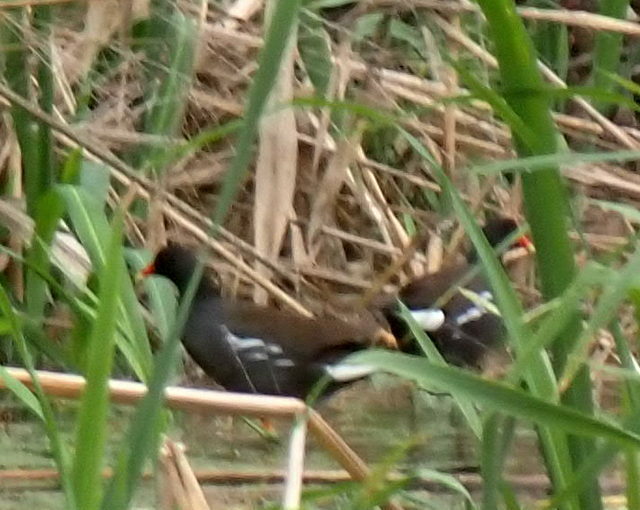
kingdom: Animalia
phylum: Chordata
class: Aves
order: Gruiformes
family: Rallidae
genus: Gallinula
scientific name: Gallinula chloropus
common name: Common moorhen
